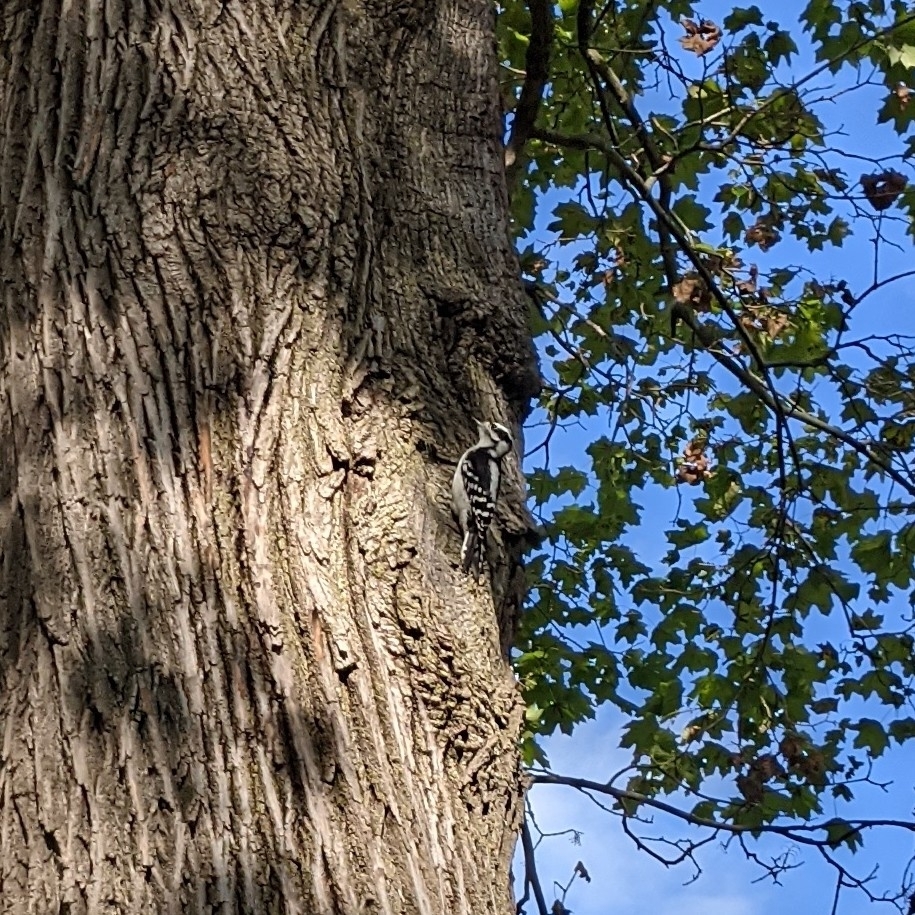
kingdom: Animalia
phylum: Chordata
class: Aves
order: Piciformes
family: Picidae
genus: Dryobates
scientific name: Dryobates pubescens
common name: Downy woodpecker
